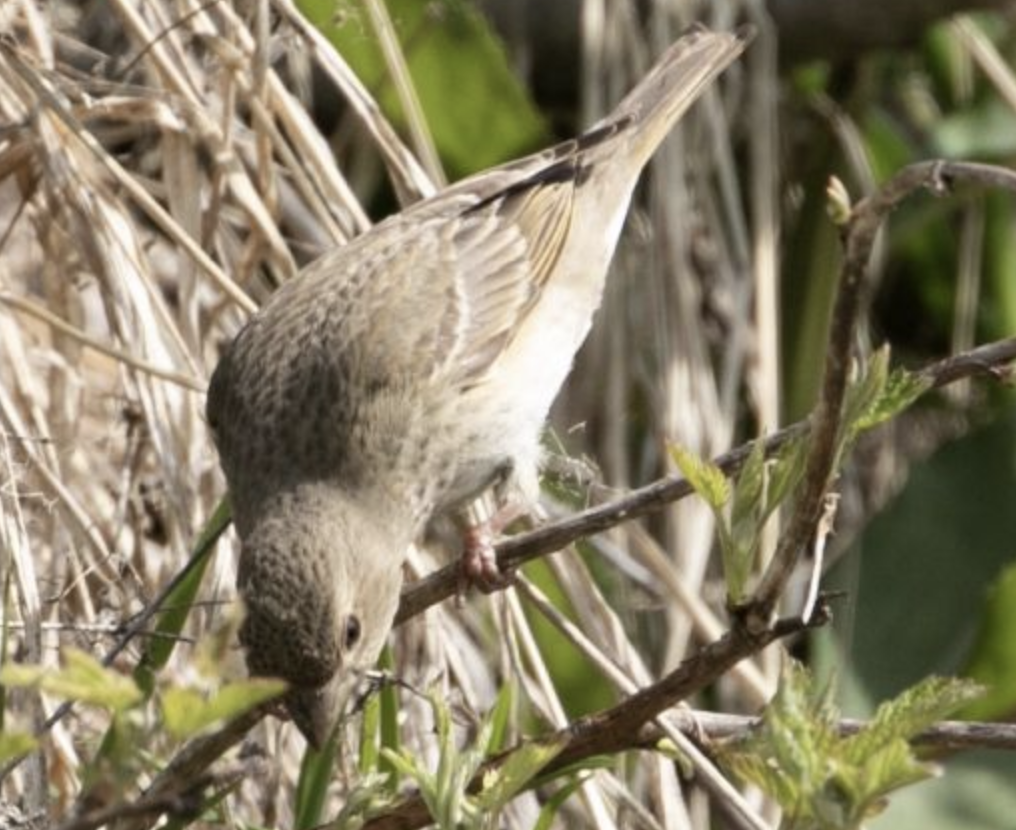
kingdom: Animalia
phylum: Chordata
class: Aves
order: Passeriformes
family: Fringillidae
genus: Carpodacus
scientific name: Carpodacus erythrinus
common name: Common rosefinch
